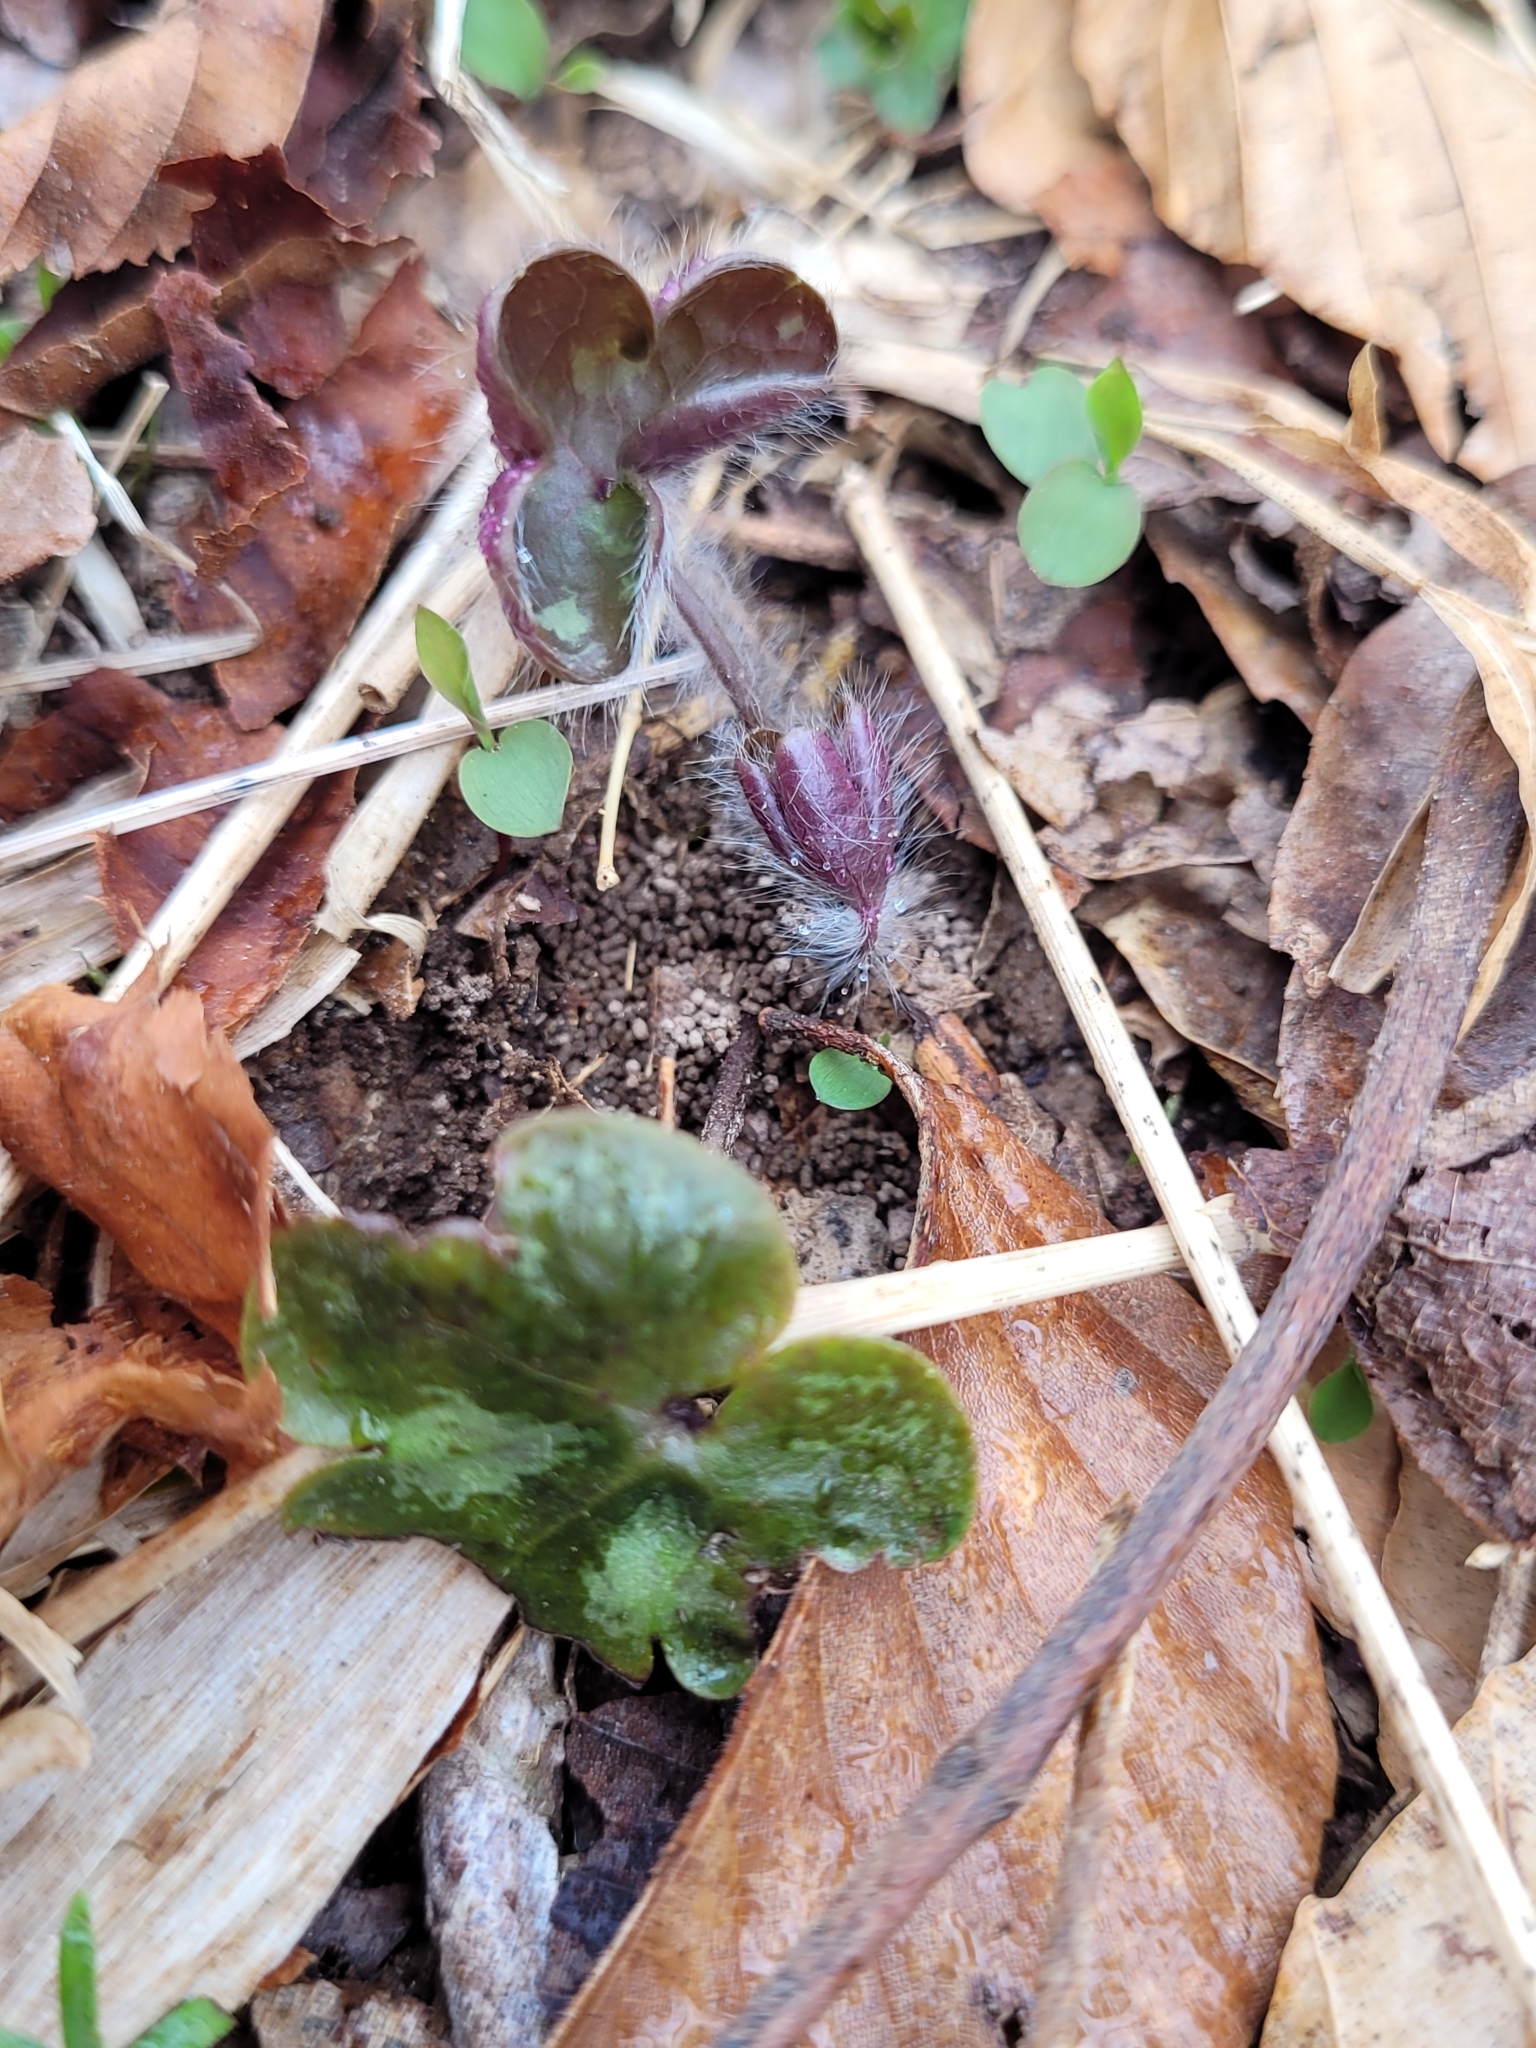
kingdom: Plantae
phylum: Tracheophyta
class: Magnoliopsida
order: Ranunculales
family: Ranunculaceae
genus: Hepatica
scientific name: Hepatica americana
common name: American hepatica
